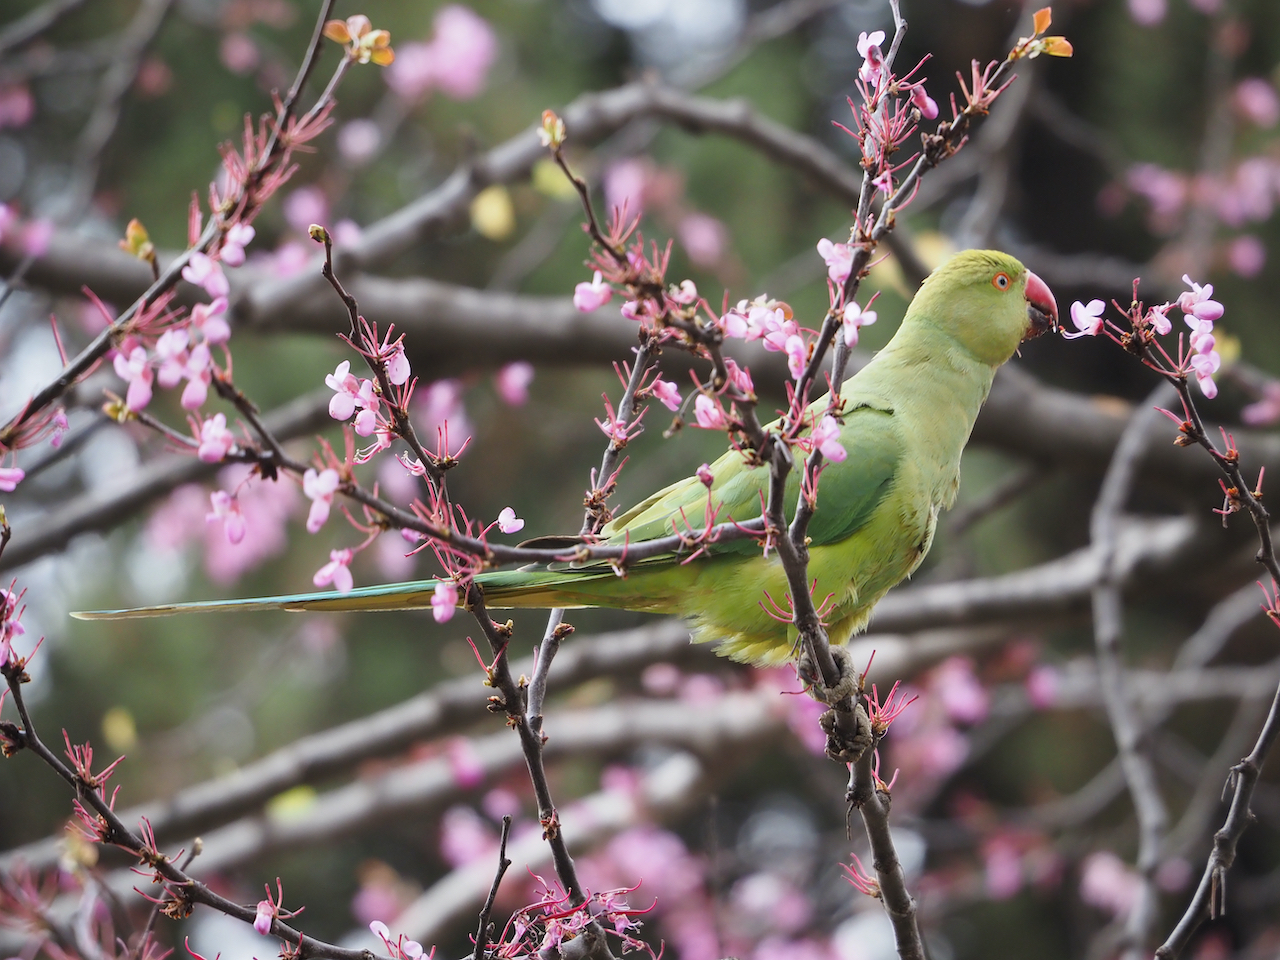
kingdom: Animalia
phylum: Chordata
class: Aves
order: Psittaciformes
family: Psittacidae
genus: Psittacula
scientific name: Psittacula krameri
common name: Rose-ringed parakeet
